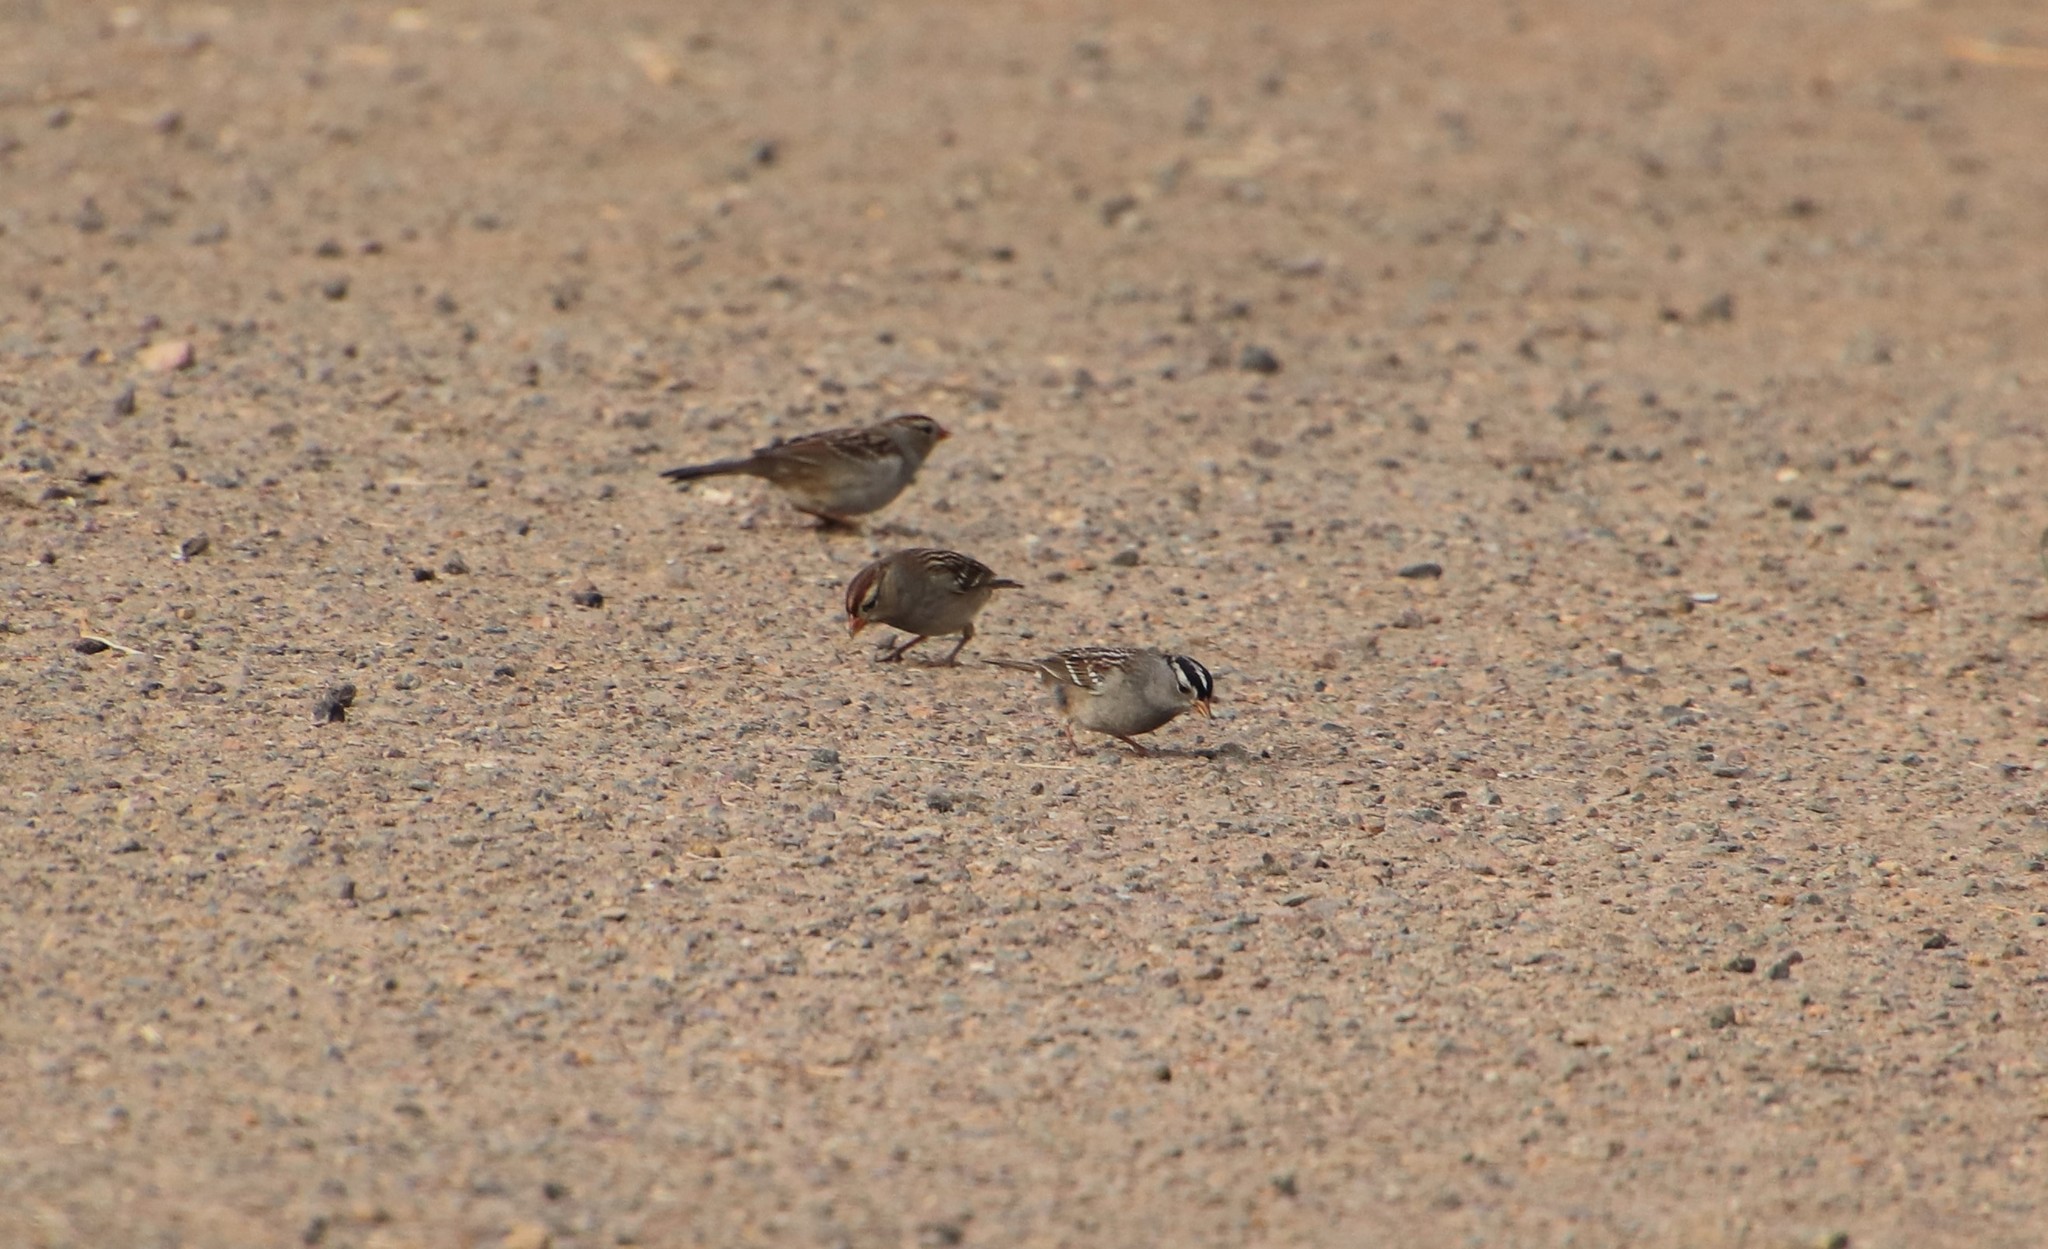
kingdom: Animalia
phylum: Chordata
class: Aves
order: Passeriformes
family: Passerellidae
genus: Zonotrichia
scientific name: Zonotrichia leucophrys
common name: White-crowned sparrow
